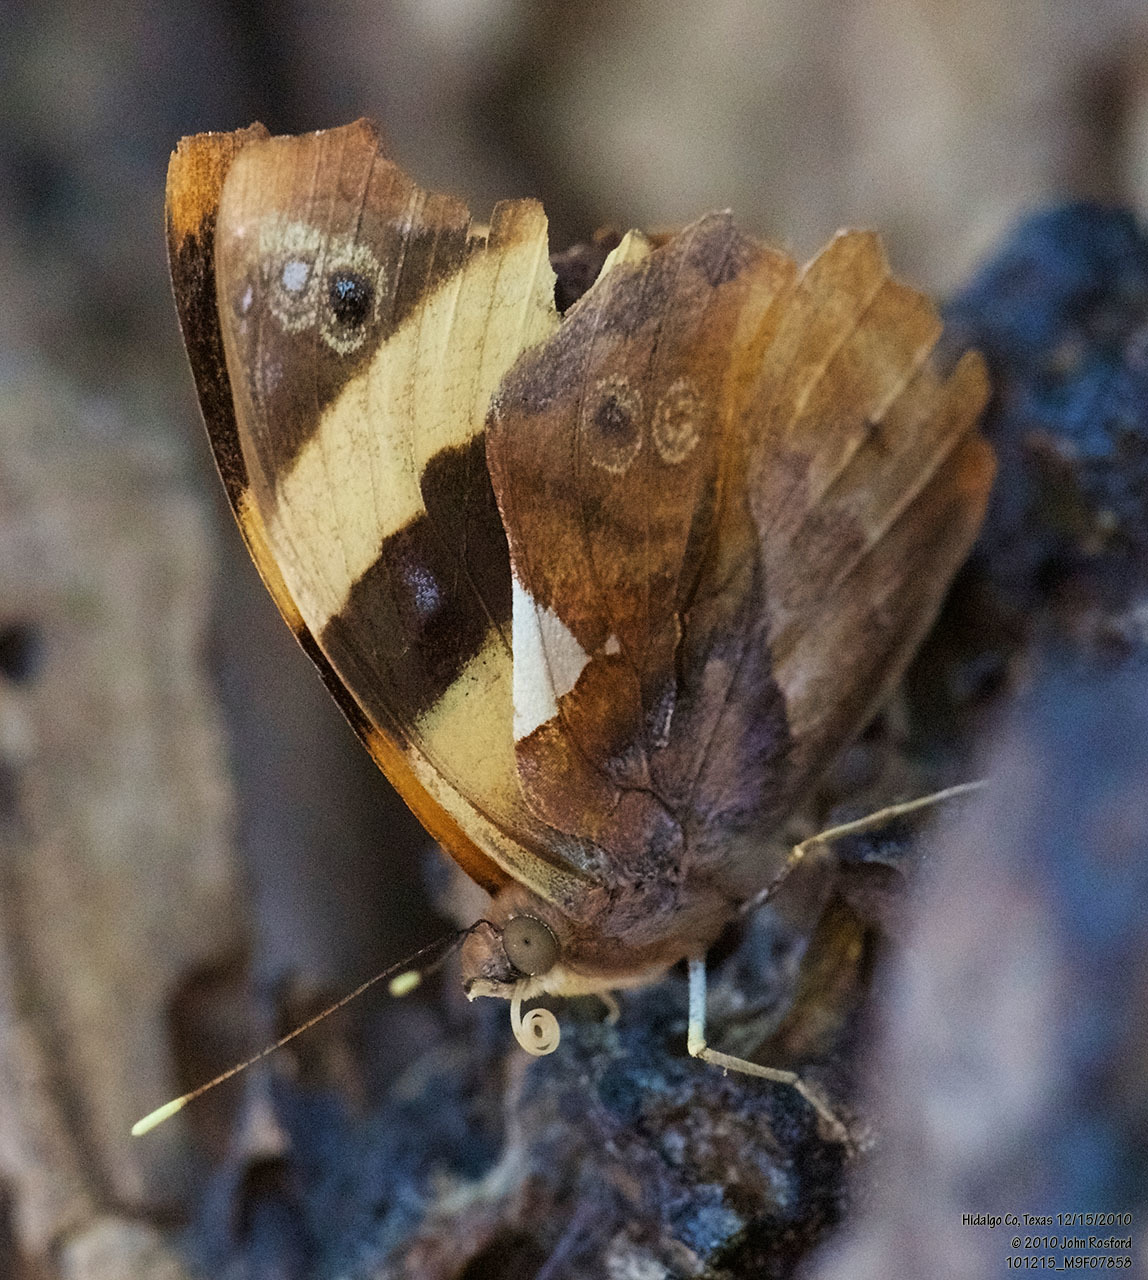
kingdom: Animalia
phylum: Arthropoda
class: Insecta
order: Lepidoptera
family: Nymphalidae
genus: Epiphile
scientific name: Epiphile adrasta
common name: Common banner
